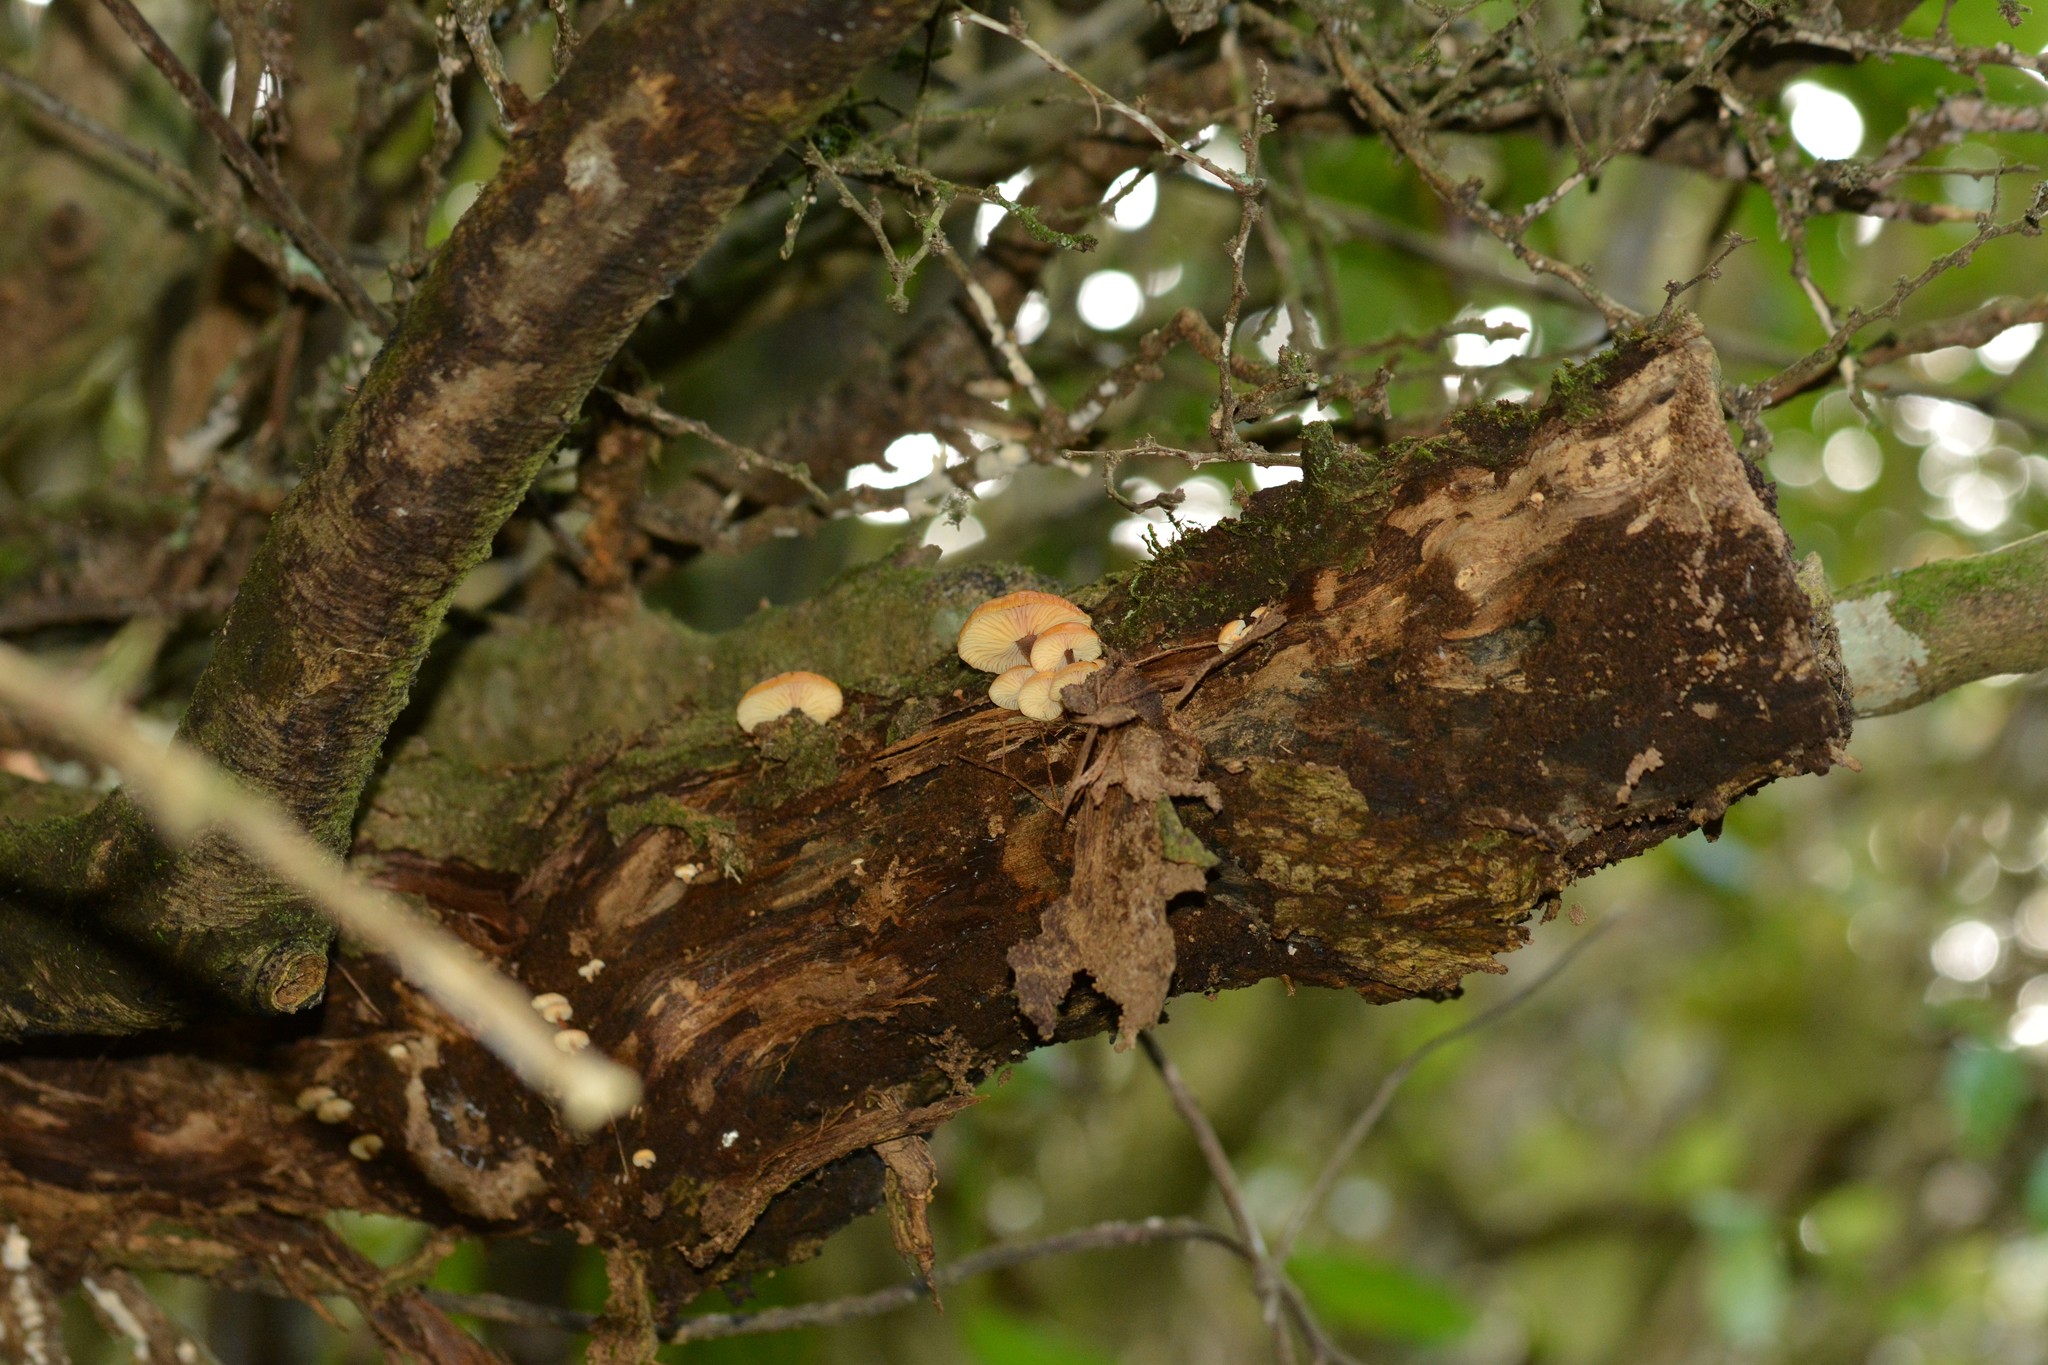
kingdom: Fungi
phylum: Basidiomycota
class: Agaricomycetes
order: Agaricales
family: Physalacriaceae
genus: Flammulina
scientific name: Flammulina velutipes
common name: Velvet shank
